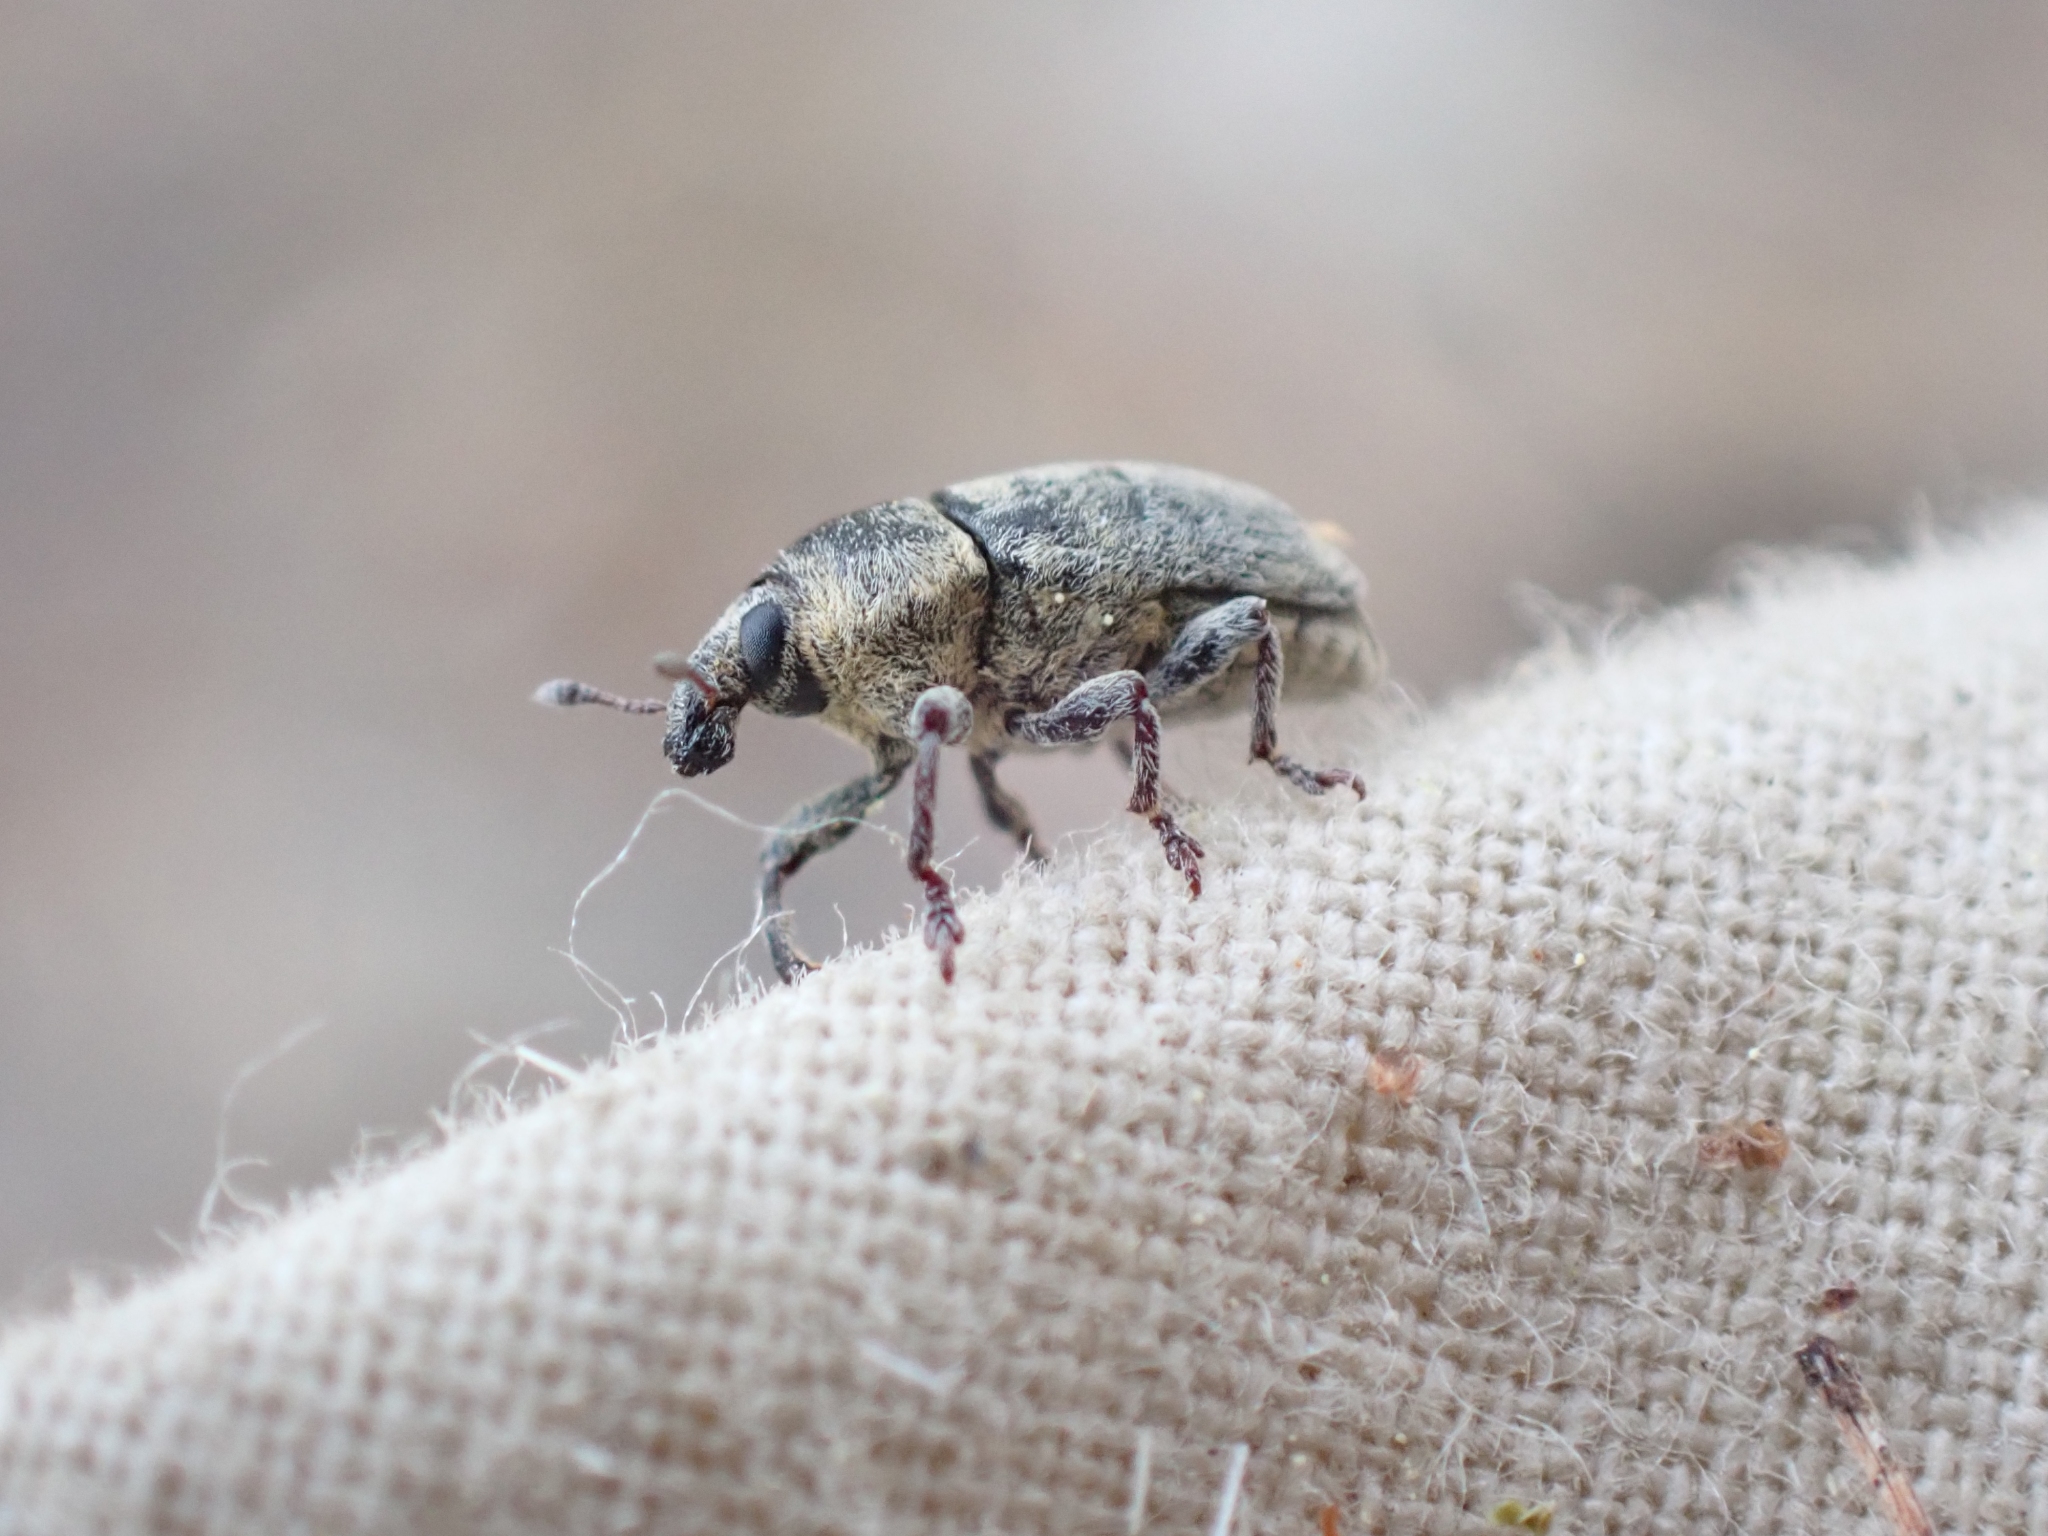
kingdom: Animalia
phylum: Arthropoda
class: Insecta
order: Coleoptera
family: Curculionidae
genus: Larinus
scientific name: Larinus minutus
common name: Weevil
